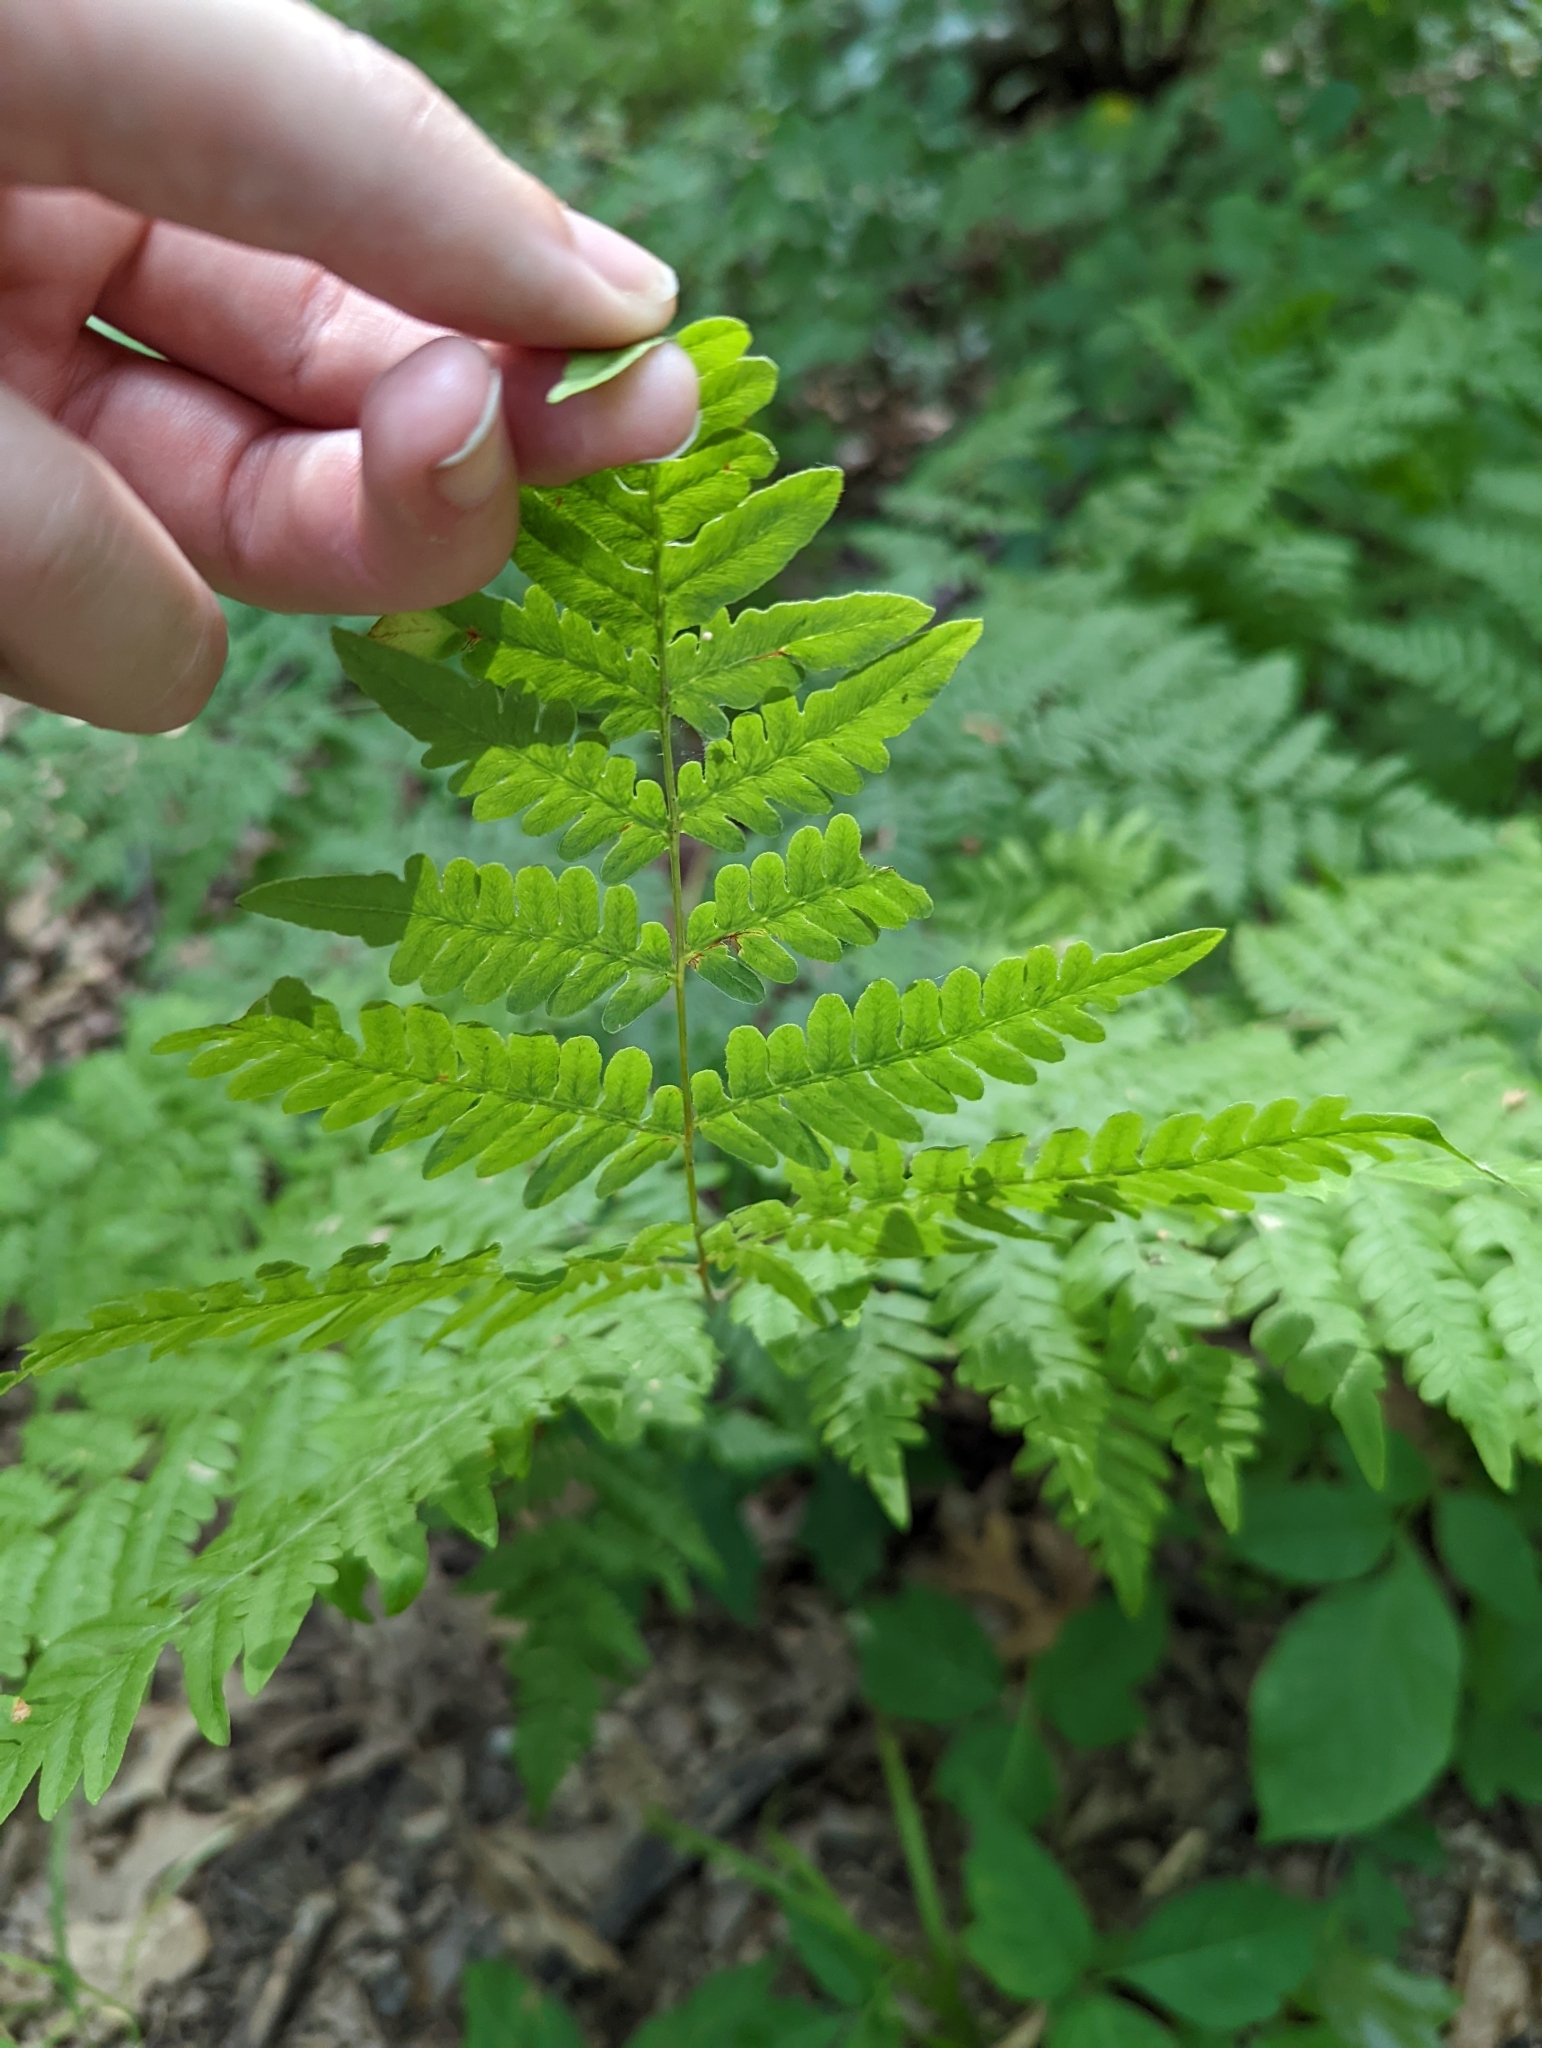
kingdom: Plantae
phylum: Tracheophyta
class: Polypodiopsida
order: Polypodiales
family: Dennstaedtiaceae
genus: Pteridium
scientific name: Pteridium aquilinum
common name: Bracken
